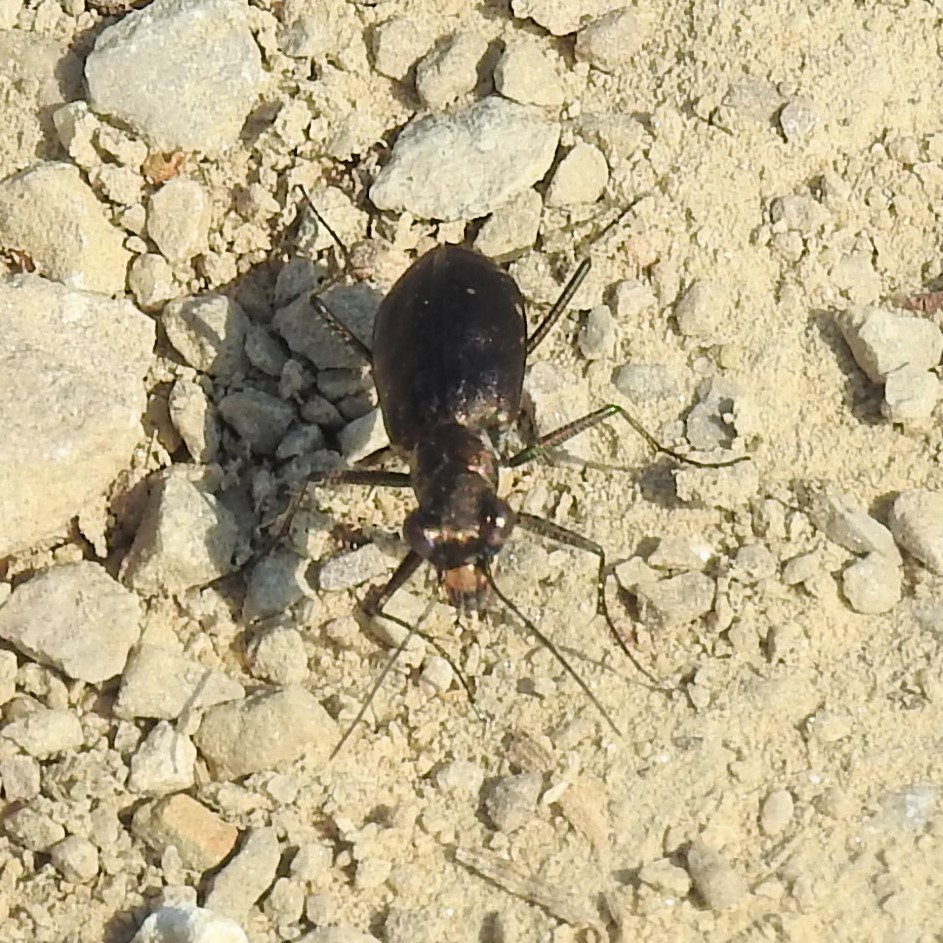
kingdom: Animalia
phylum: Arthropoda
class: Insecta
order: Coleoptera
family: Carabidae
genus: Cicindela
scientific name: Cicindela punctulata
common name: Punctured tiger beetle
